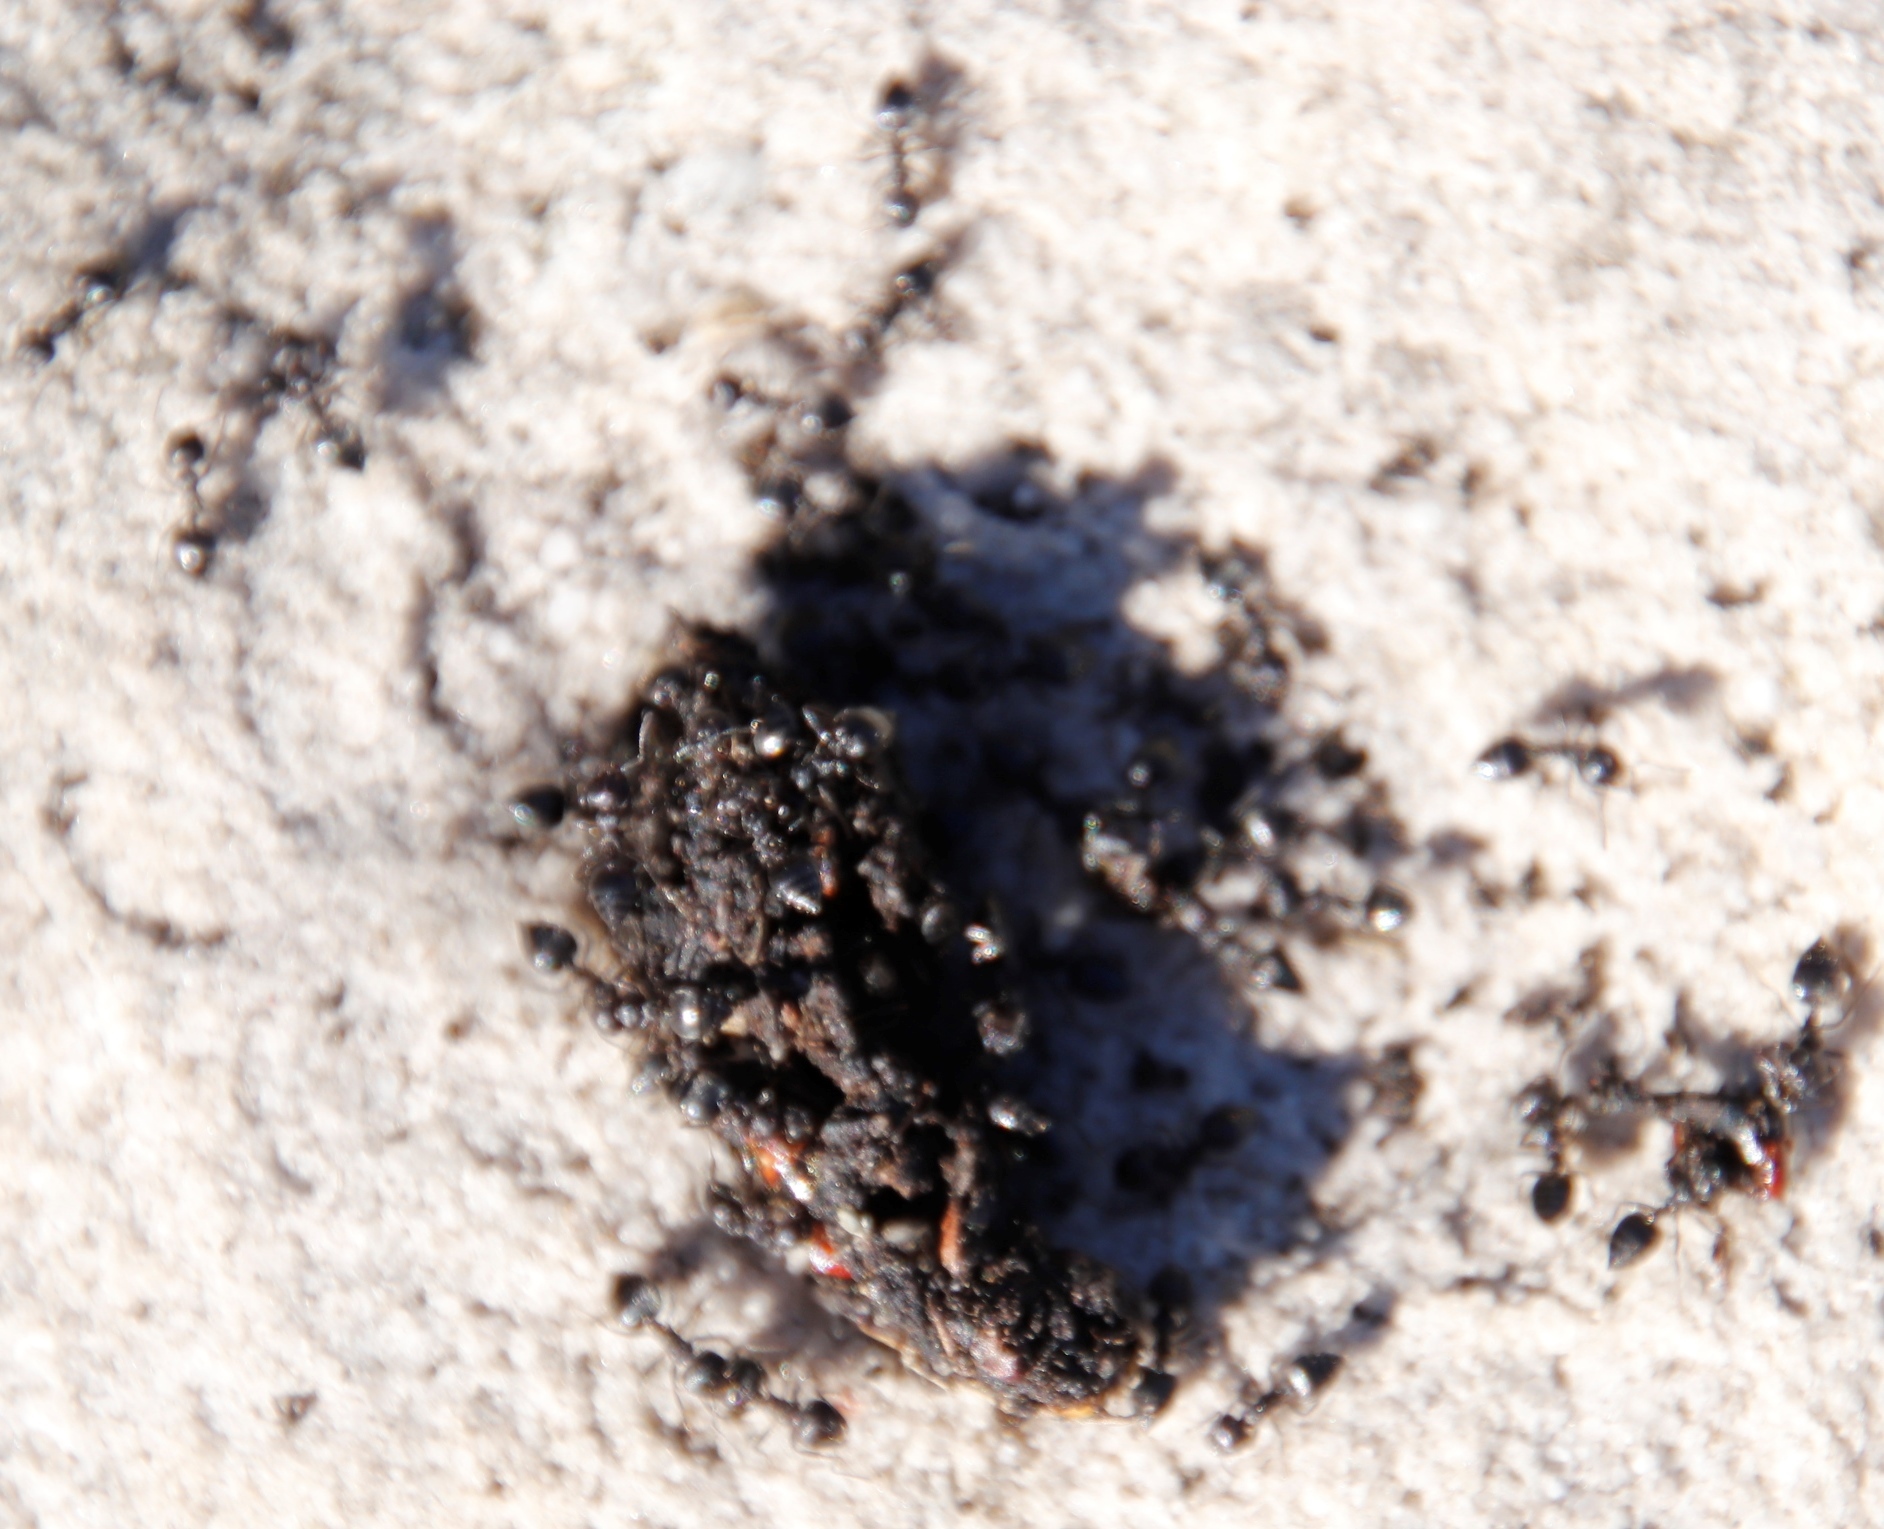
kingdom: Animalia
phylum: Arthropoda
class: Insecta
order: Hymenoptera
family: Formicidae
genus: Crematogaster
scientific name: Crematogaster peringueyi
